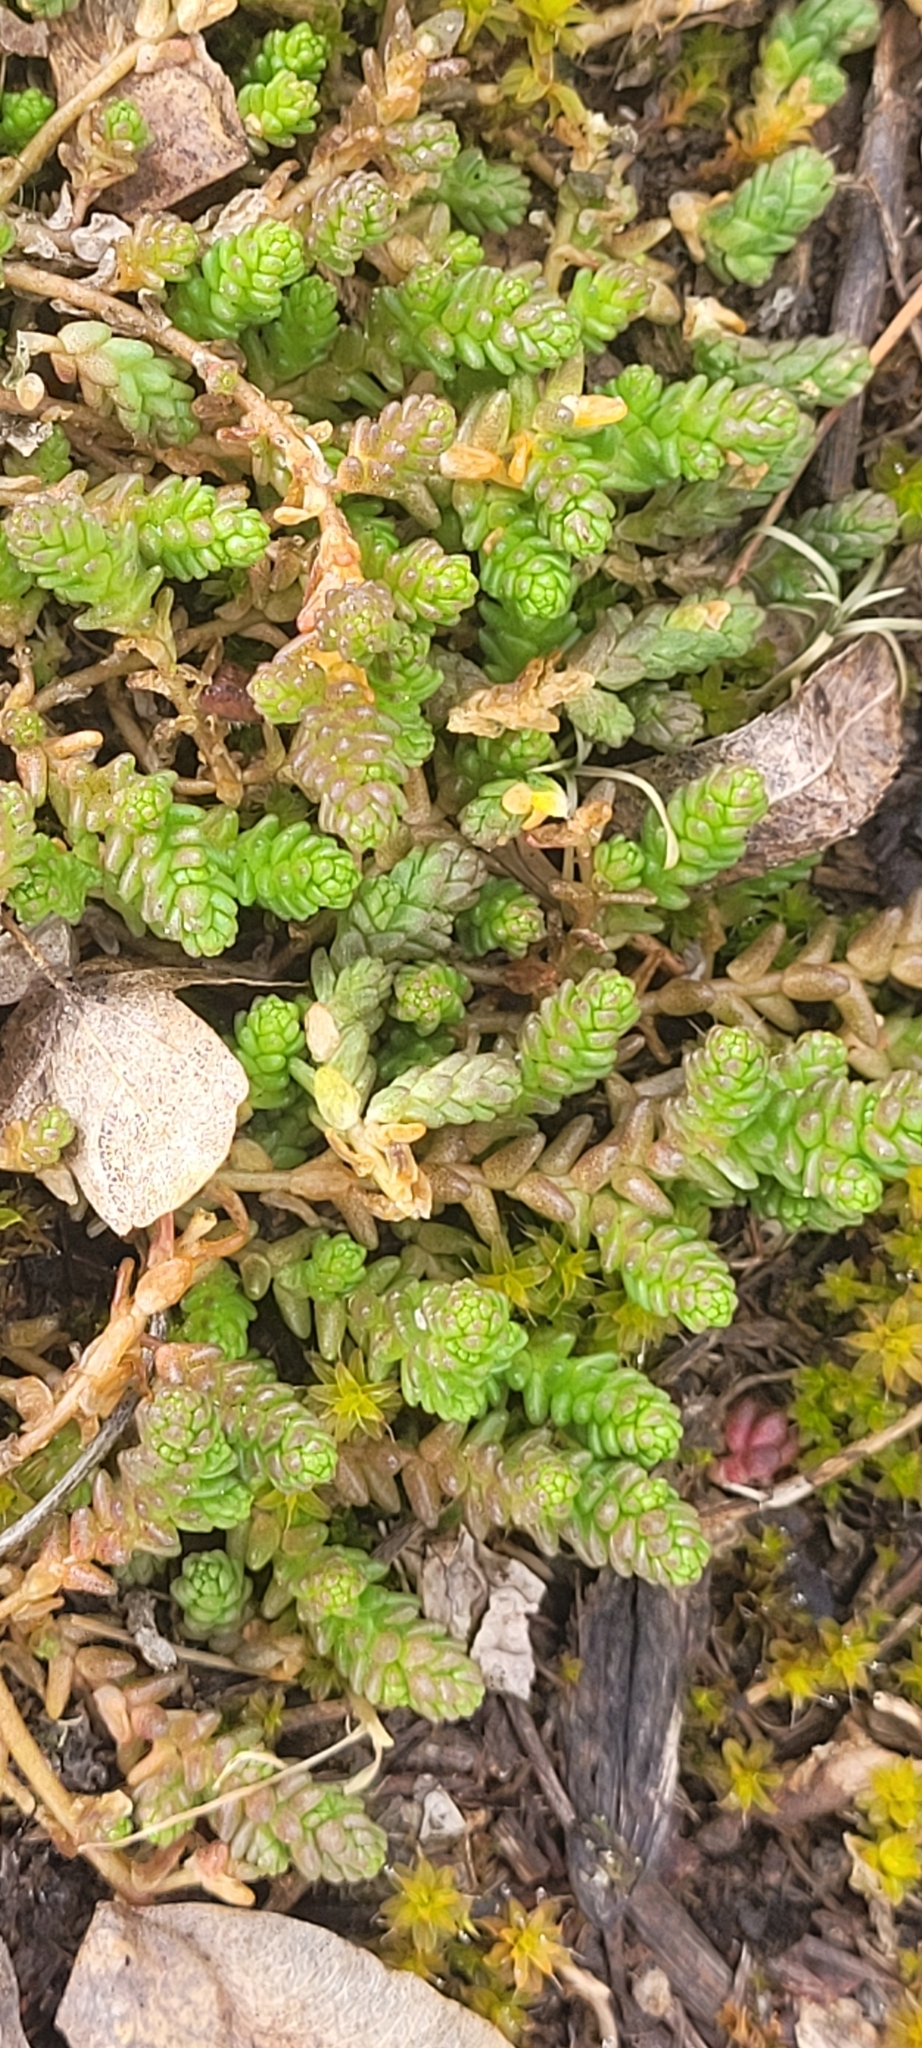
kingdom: Plantae
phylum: Tracheophyta
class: Magnoliopsida
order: Saxifragales
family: Crassulaceae
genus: Sedum
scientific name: Sedum acre
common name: Biting stonecrop
